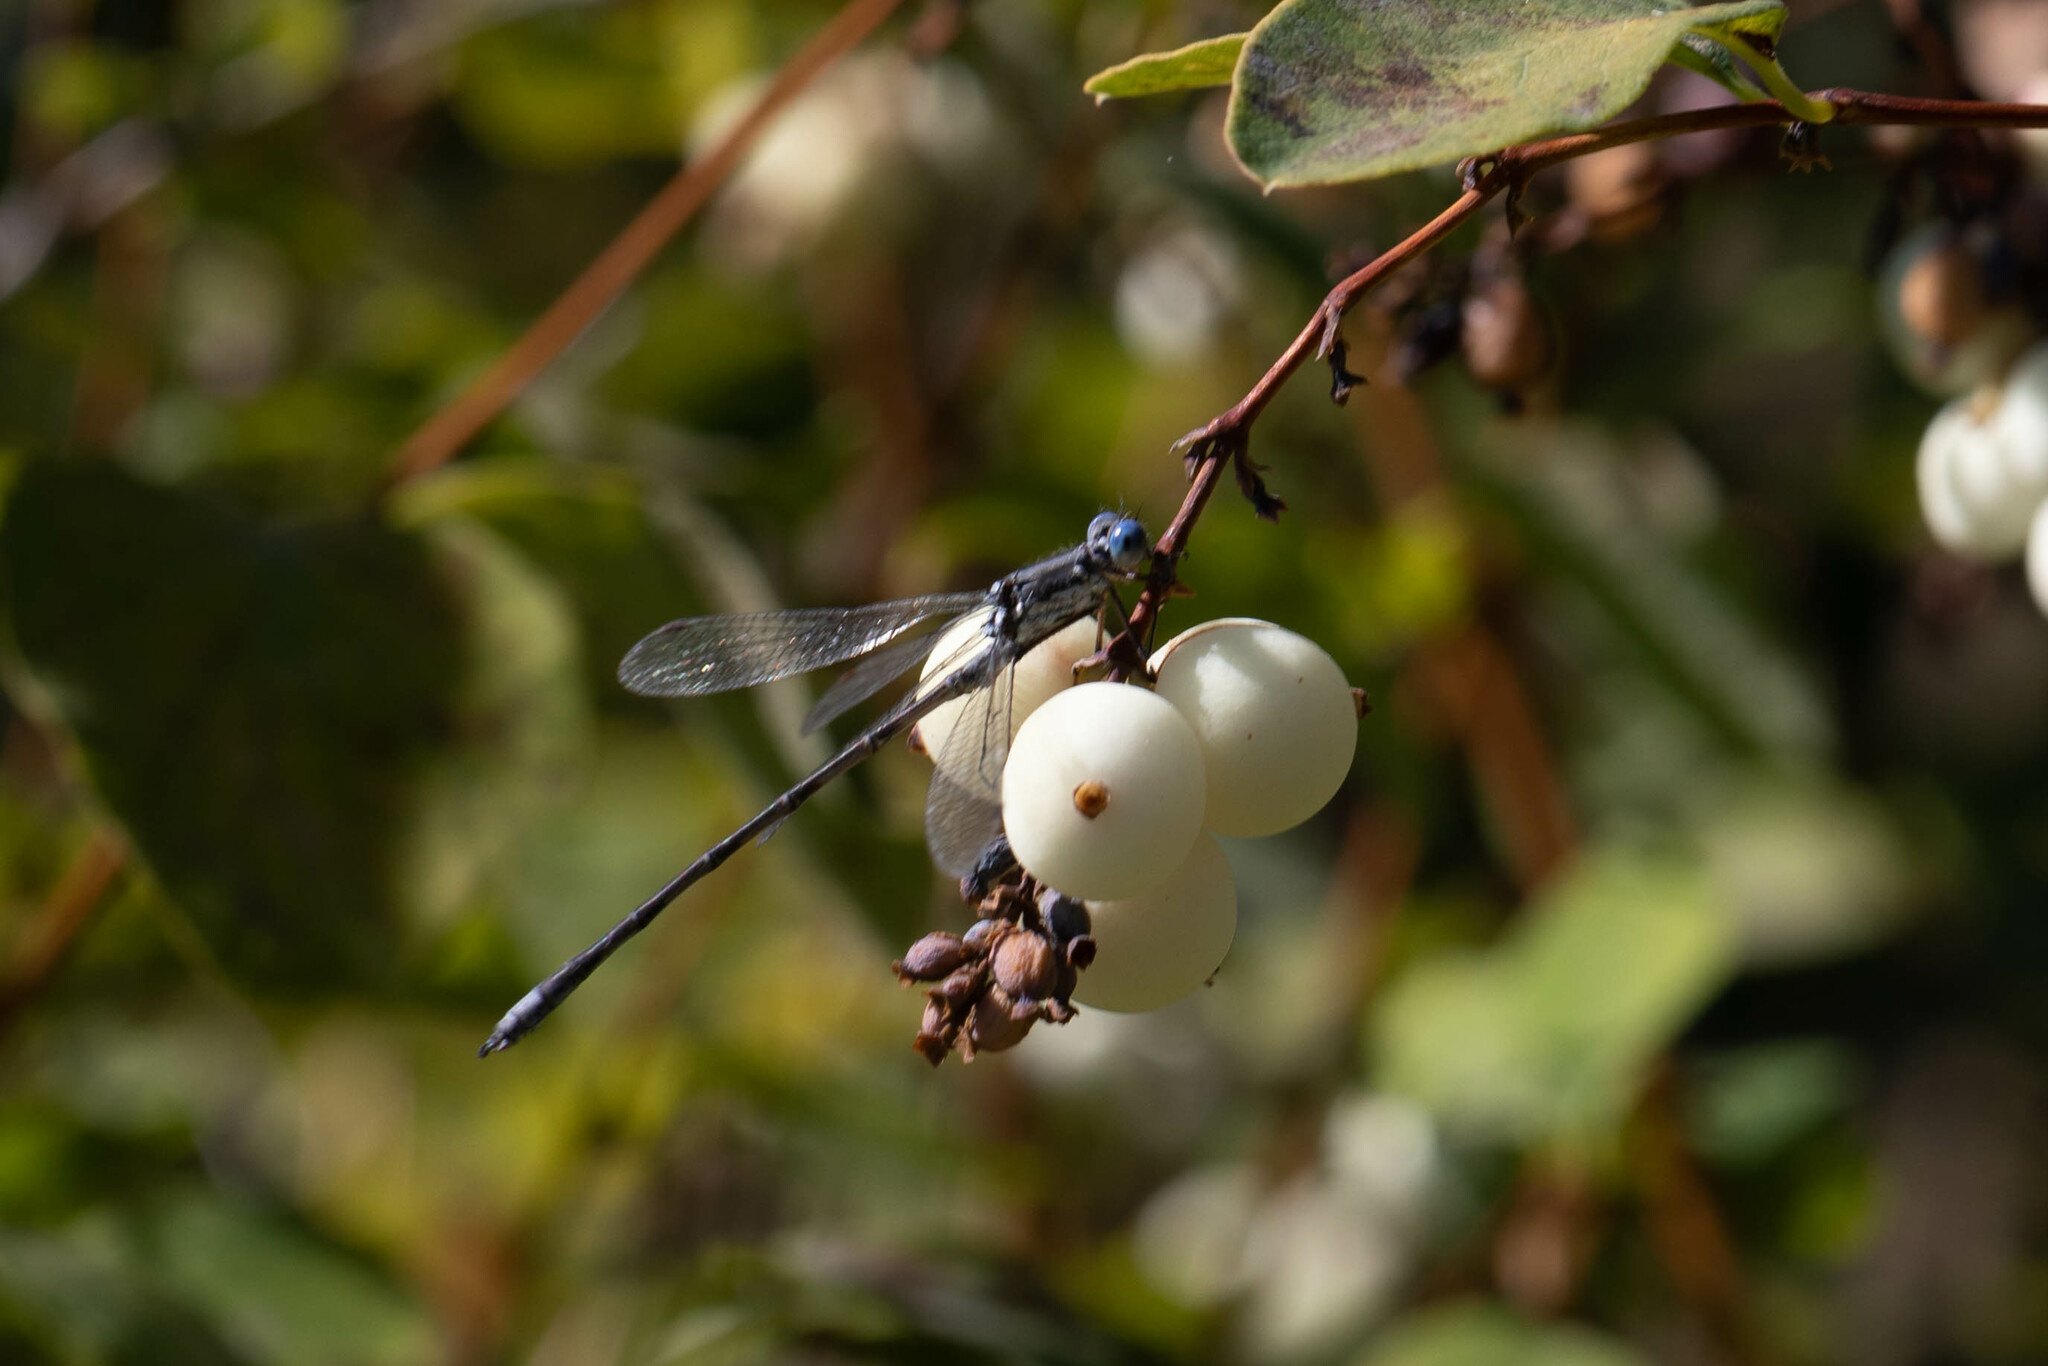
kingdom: Animalia
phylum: Arthropoda
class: Insecta
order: Odonata
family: Lestidae
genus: Lestes
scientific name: Lestes congener
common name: Spotted spreadwing
